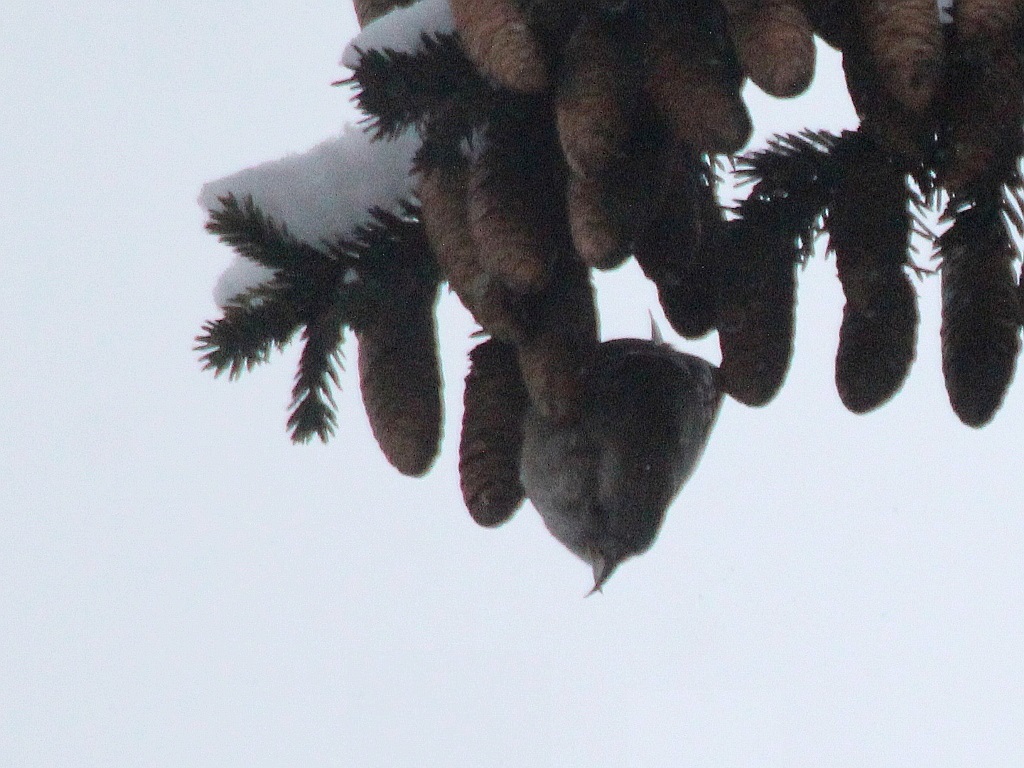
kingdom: Animalia
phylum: Chordata
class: Aves
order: Passeriformes
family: Fringillidae
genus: Loxia
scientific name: Loxia leucoptera
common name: Two-barred crossbill
